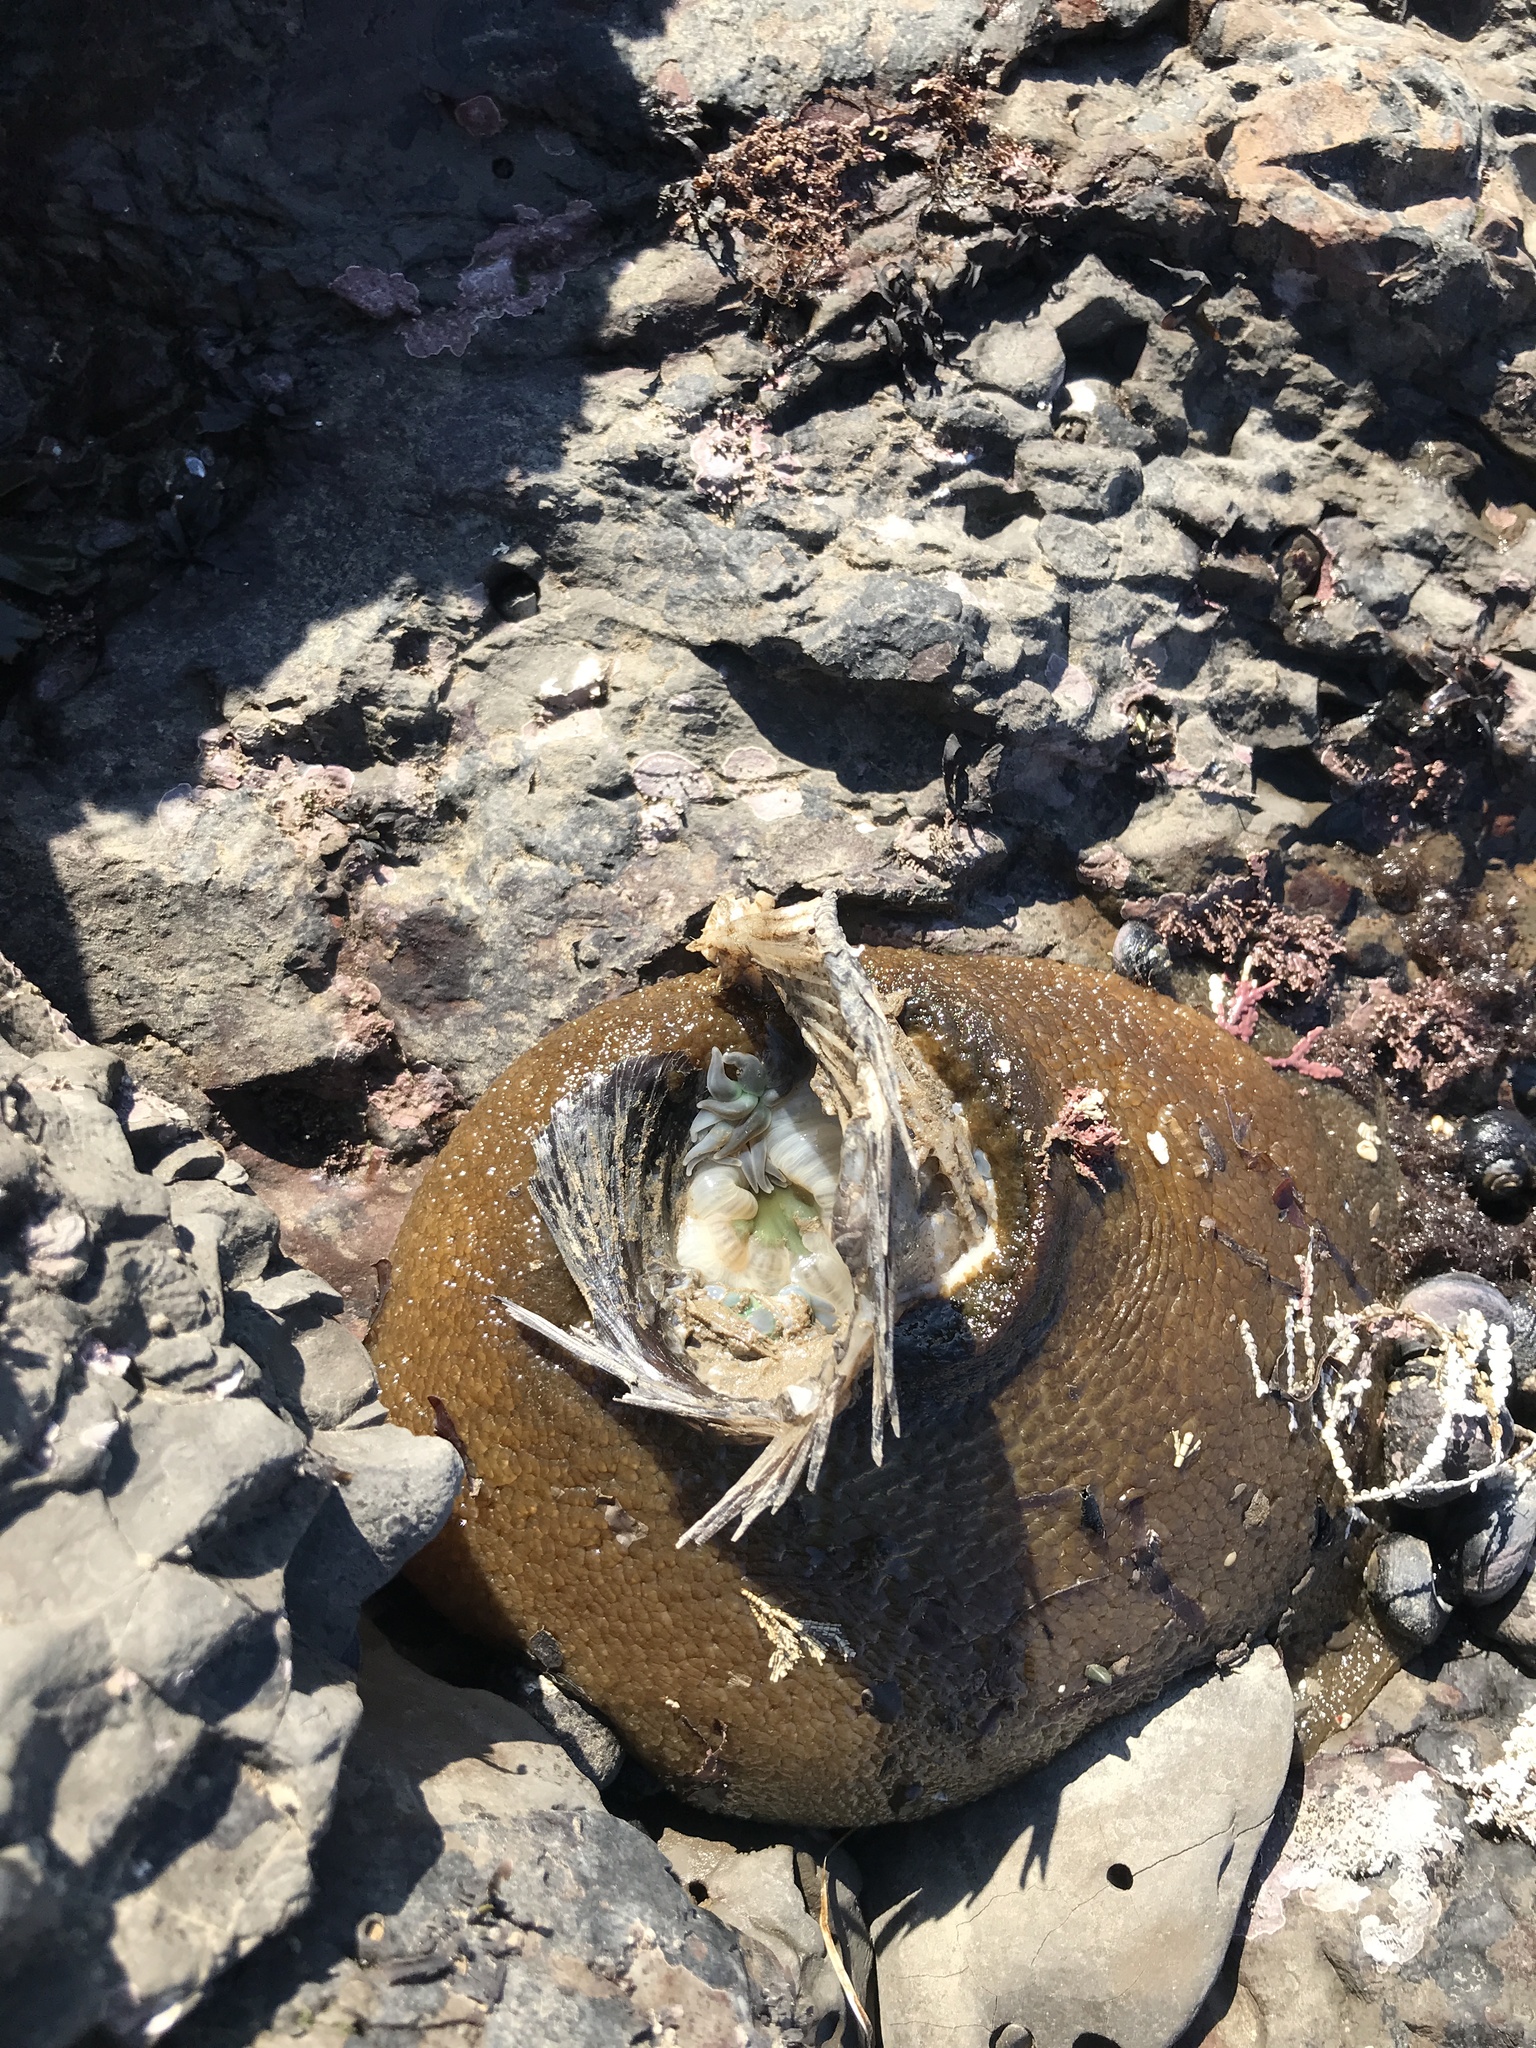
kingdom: Animalia
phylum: Cnidaria
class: Anthozoa
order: Actiniaria
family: Actiniidae
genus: Anthopleura
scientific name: Anthopleura xanthogrammica
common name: Giant green anemone
